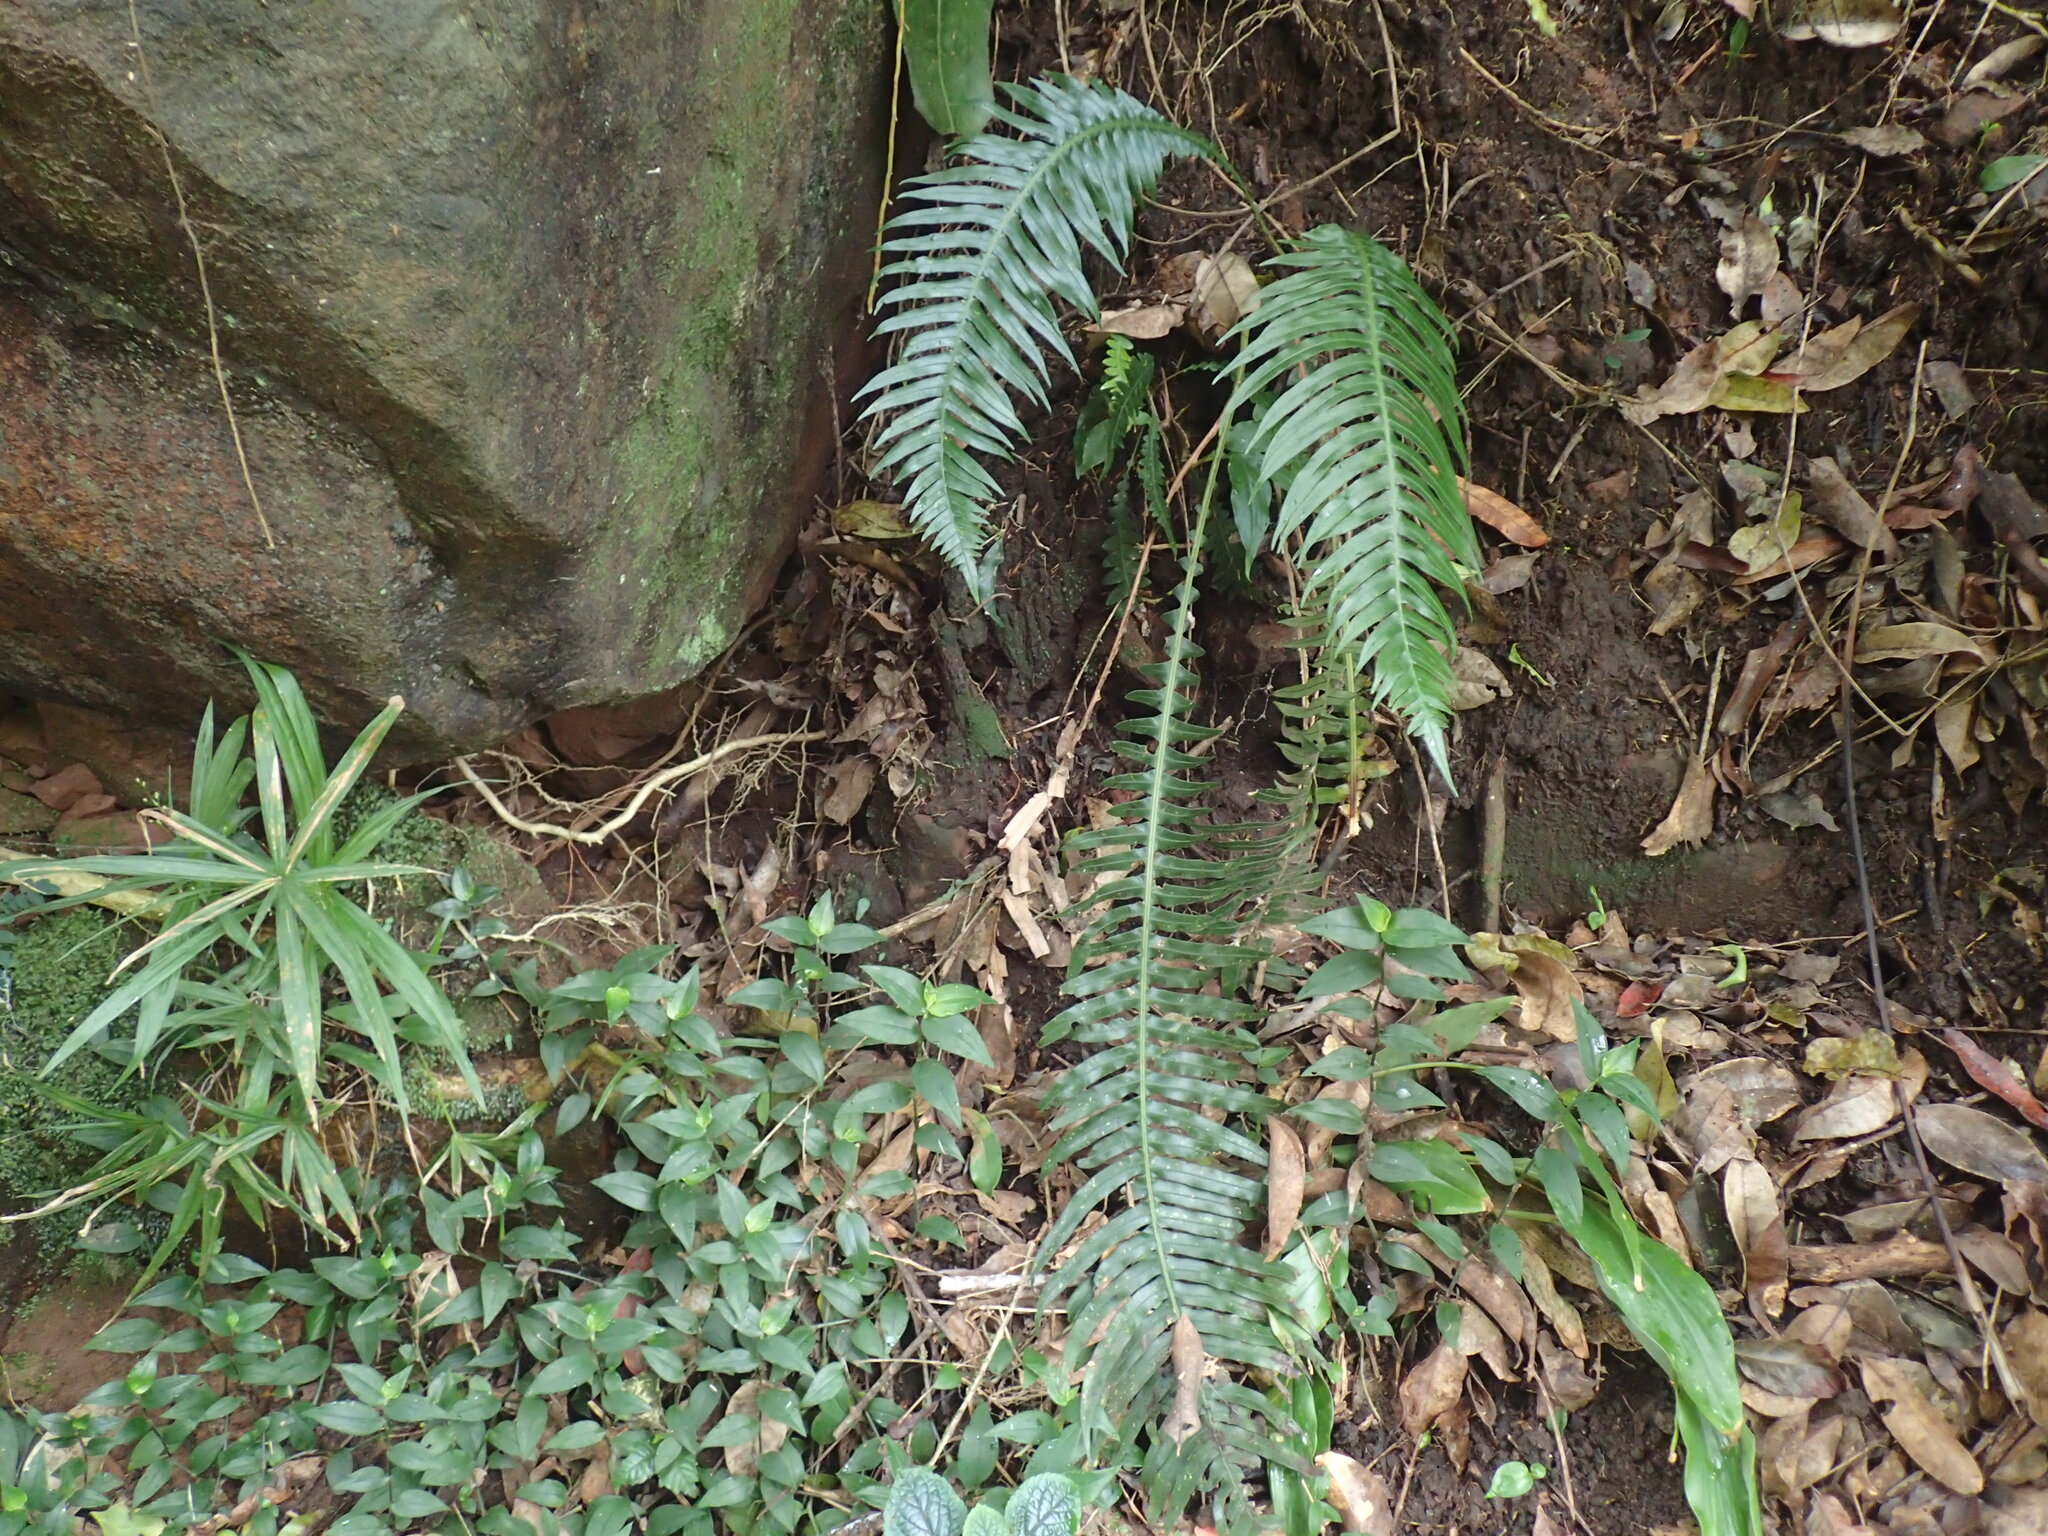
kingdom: Plantae
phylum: Tracheophyta
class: Polypodiopsida
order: Polypodiales
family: Blechnaceae
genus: Lomaridium
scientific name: Lomaridium attenuatum
